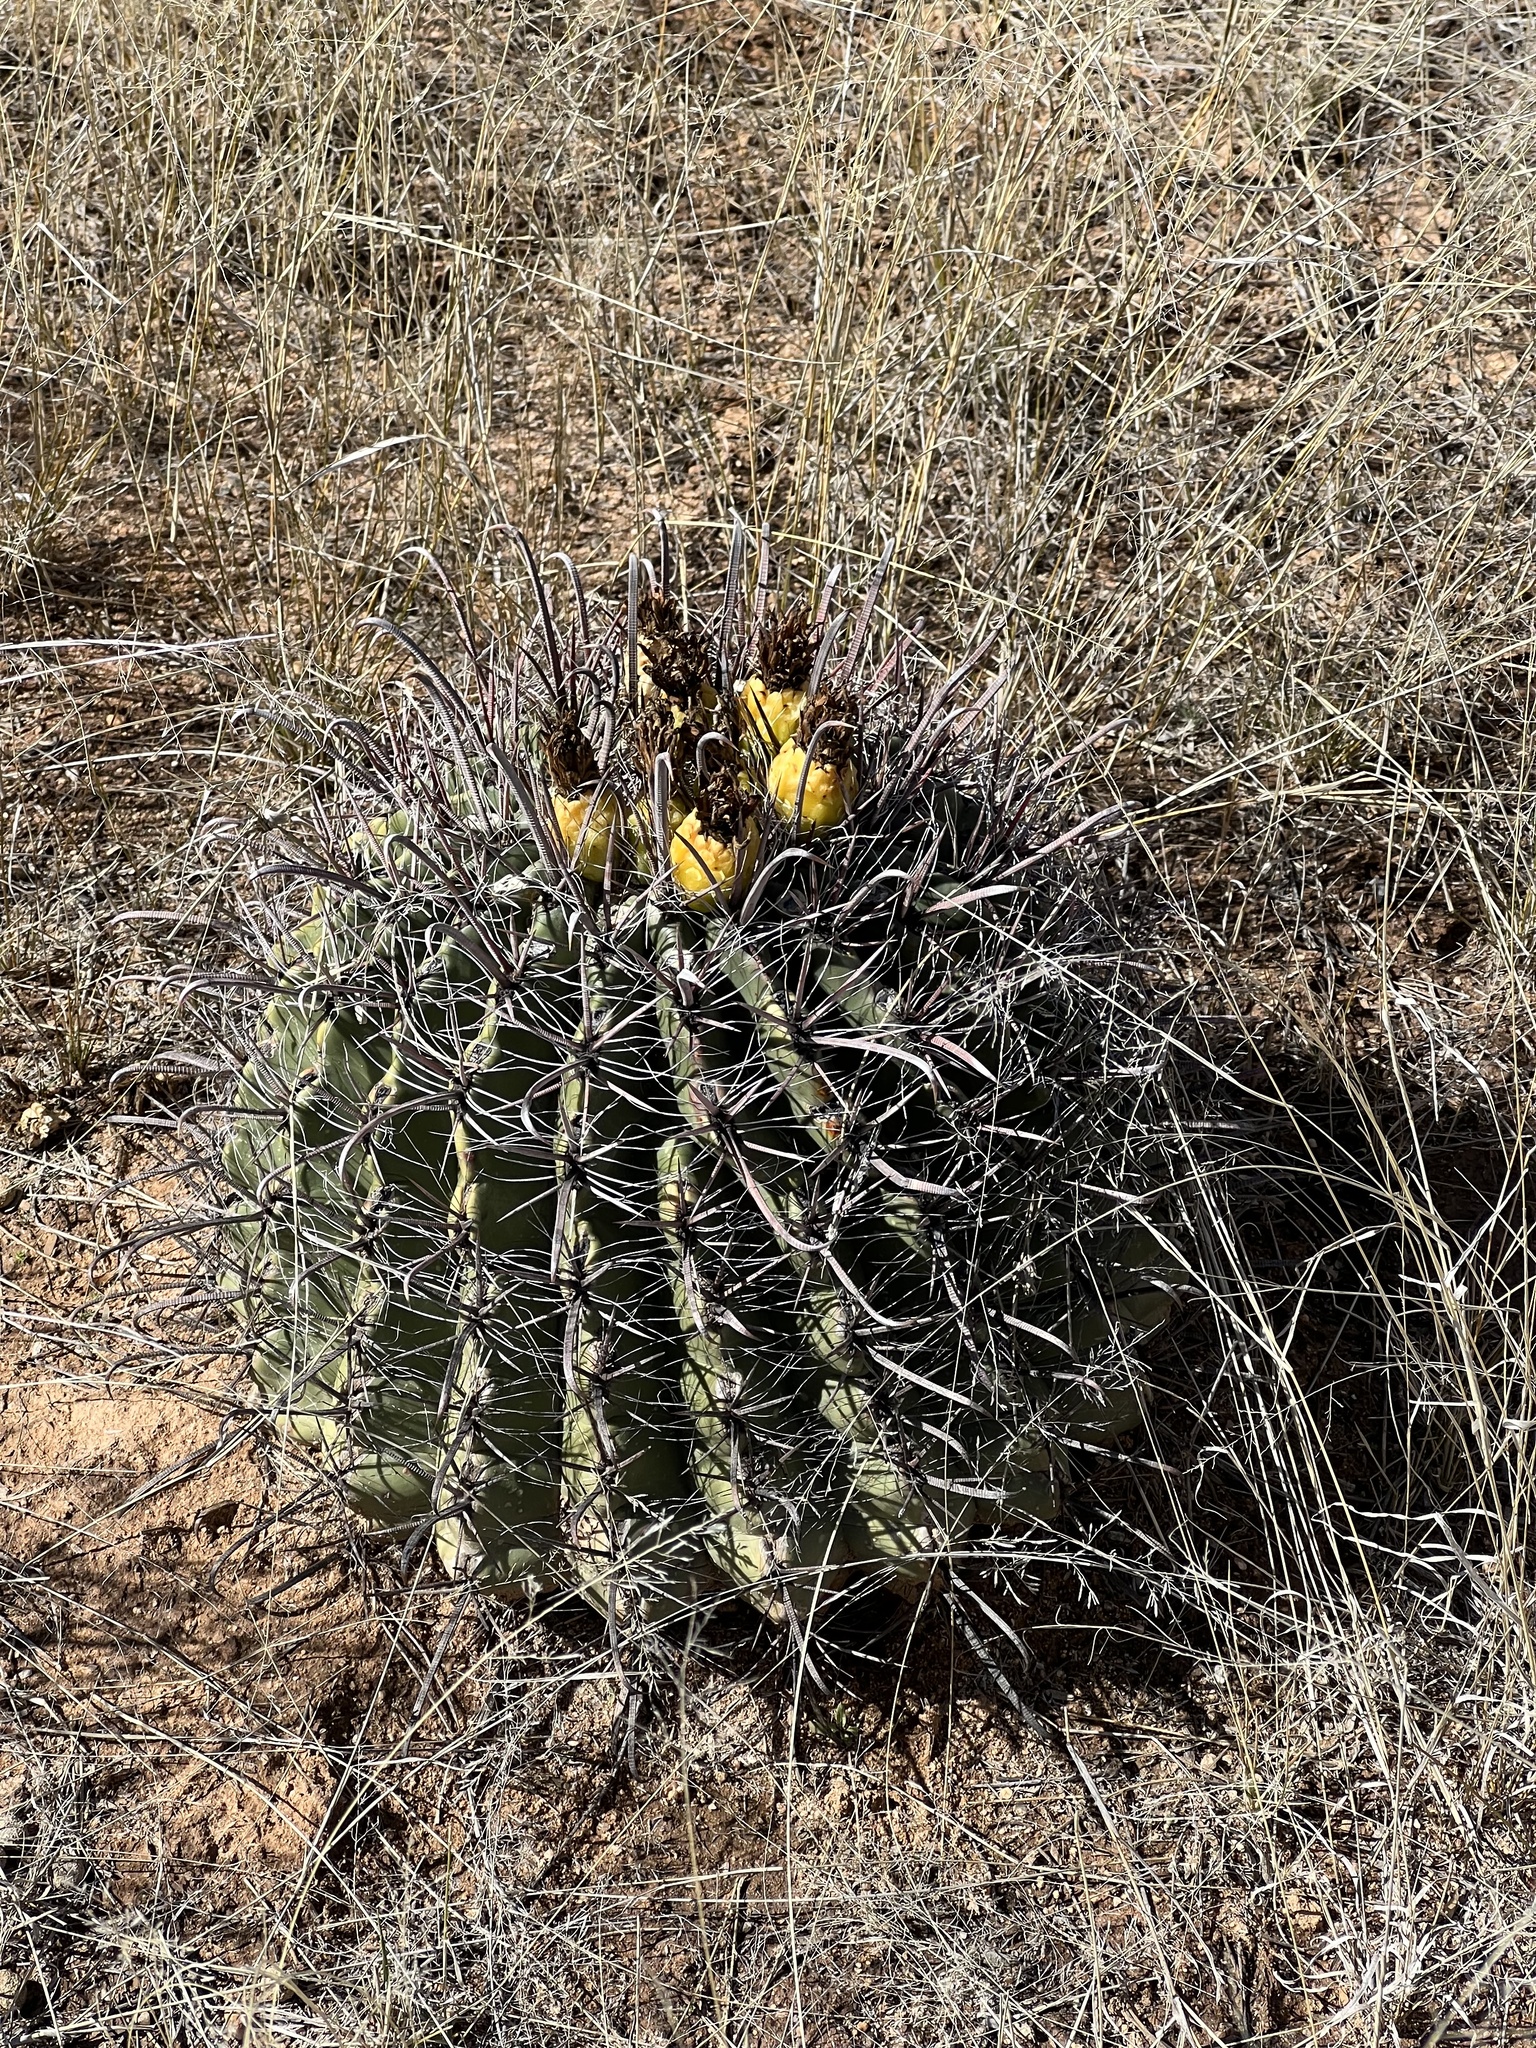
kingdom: Plantae
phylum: Tracheophyta
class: Magnoliopsida
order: Caryophyllales
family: Cactaceae
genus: Ferocactus
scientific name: Ferocactus wislizeni
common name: Candy barrel cactus
